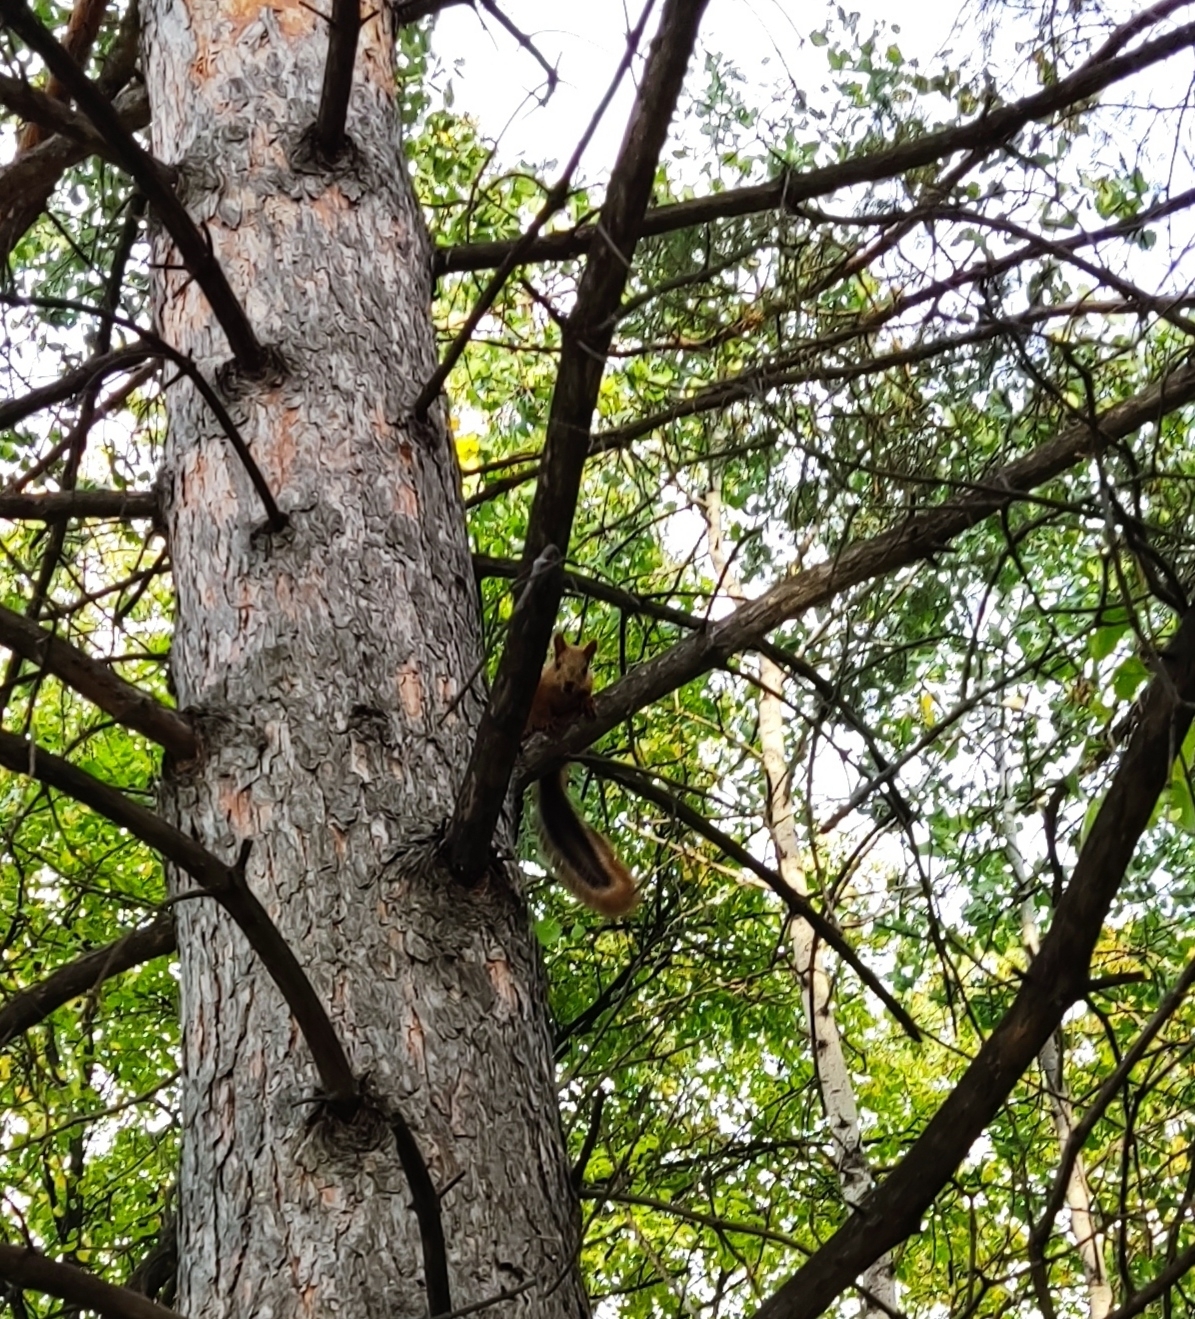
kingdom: Animalia
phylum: Chordata
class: Mammalia
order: Rodentia
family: Sciuridae
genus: Sciurus
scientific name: Sciurus vulgaris
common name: Eurasian red squirrel
